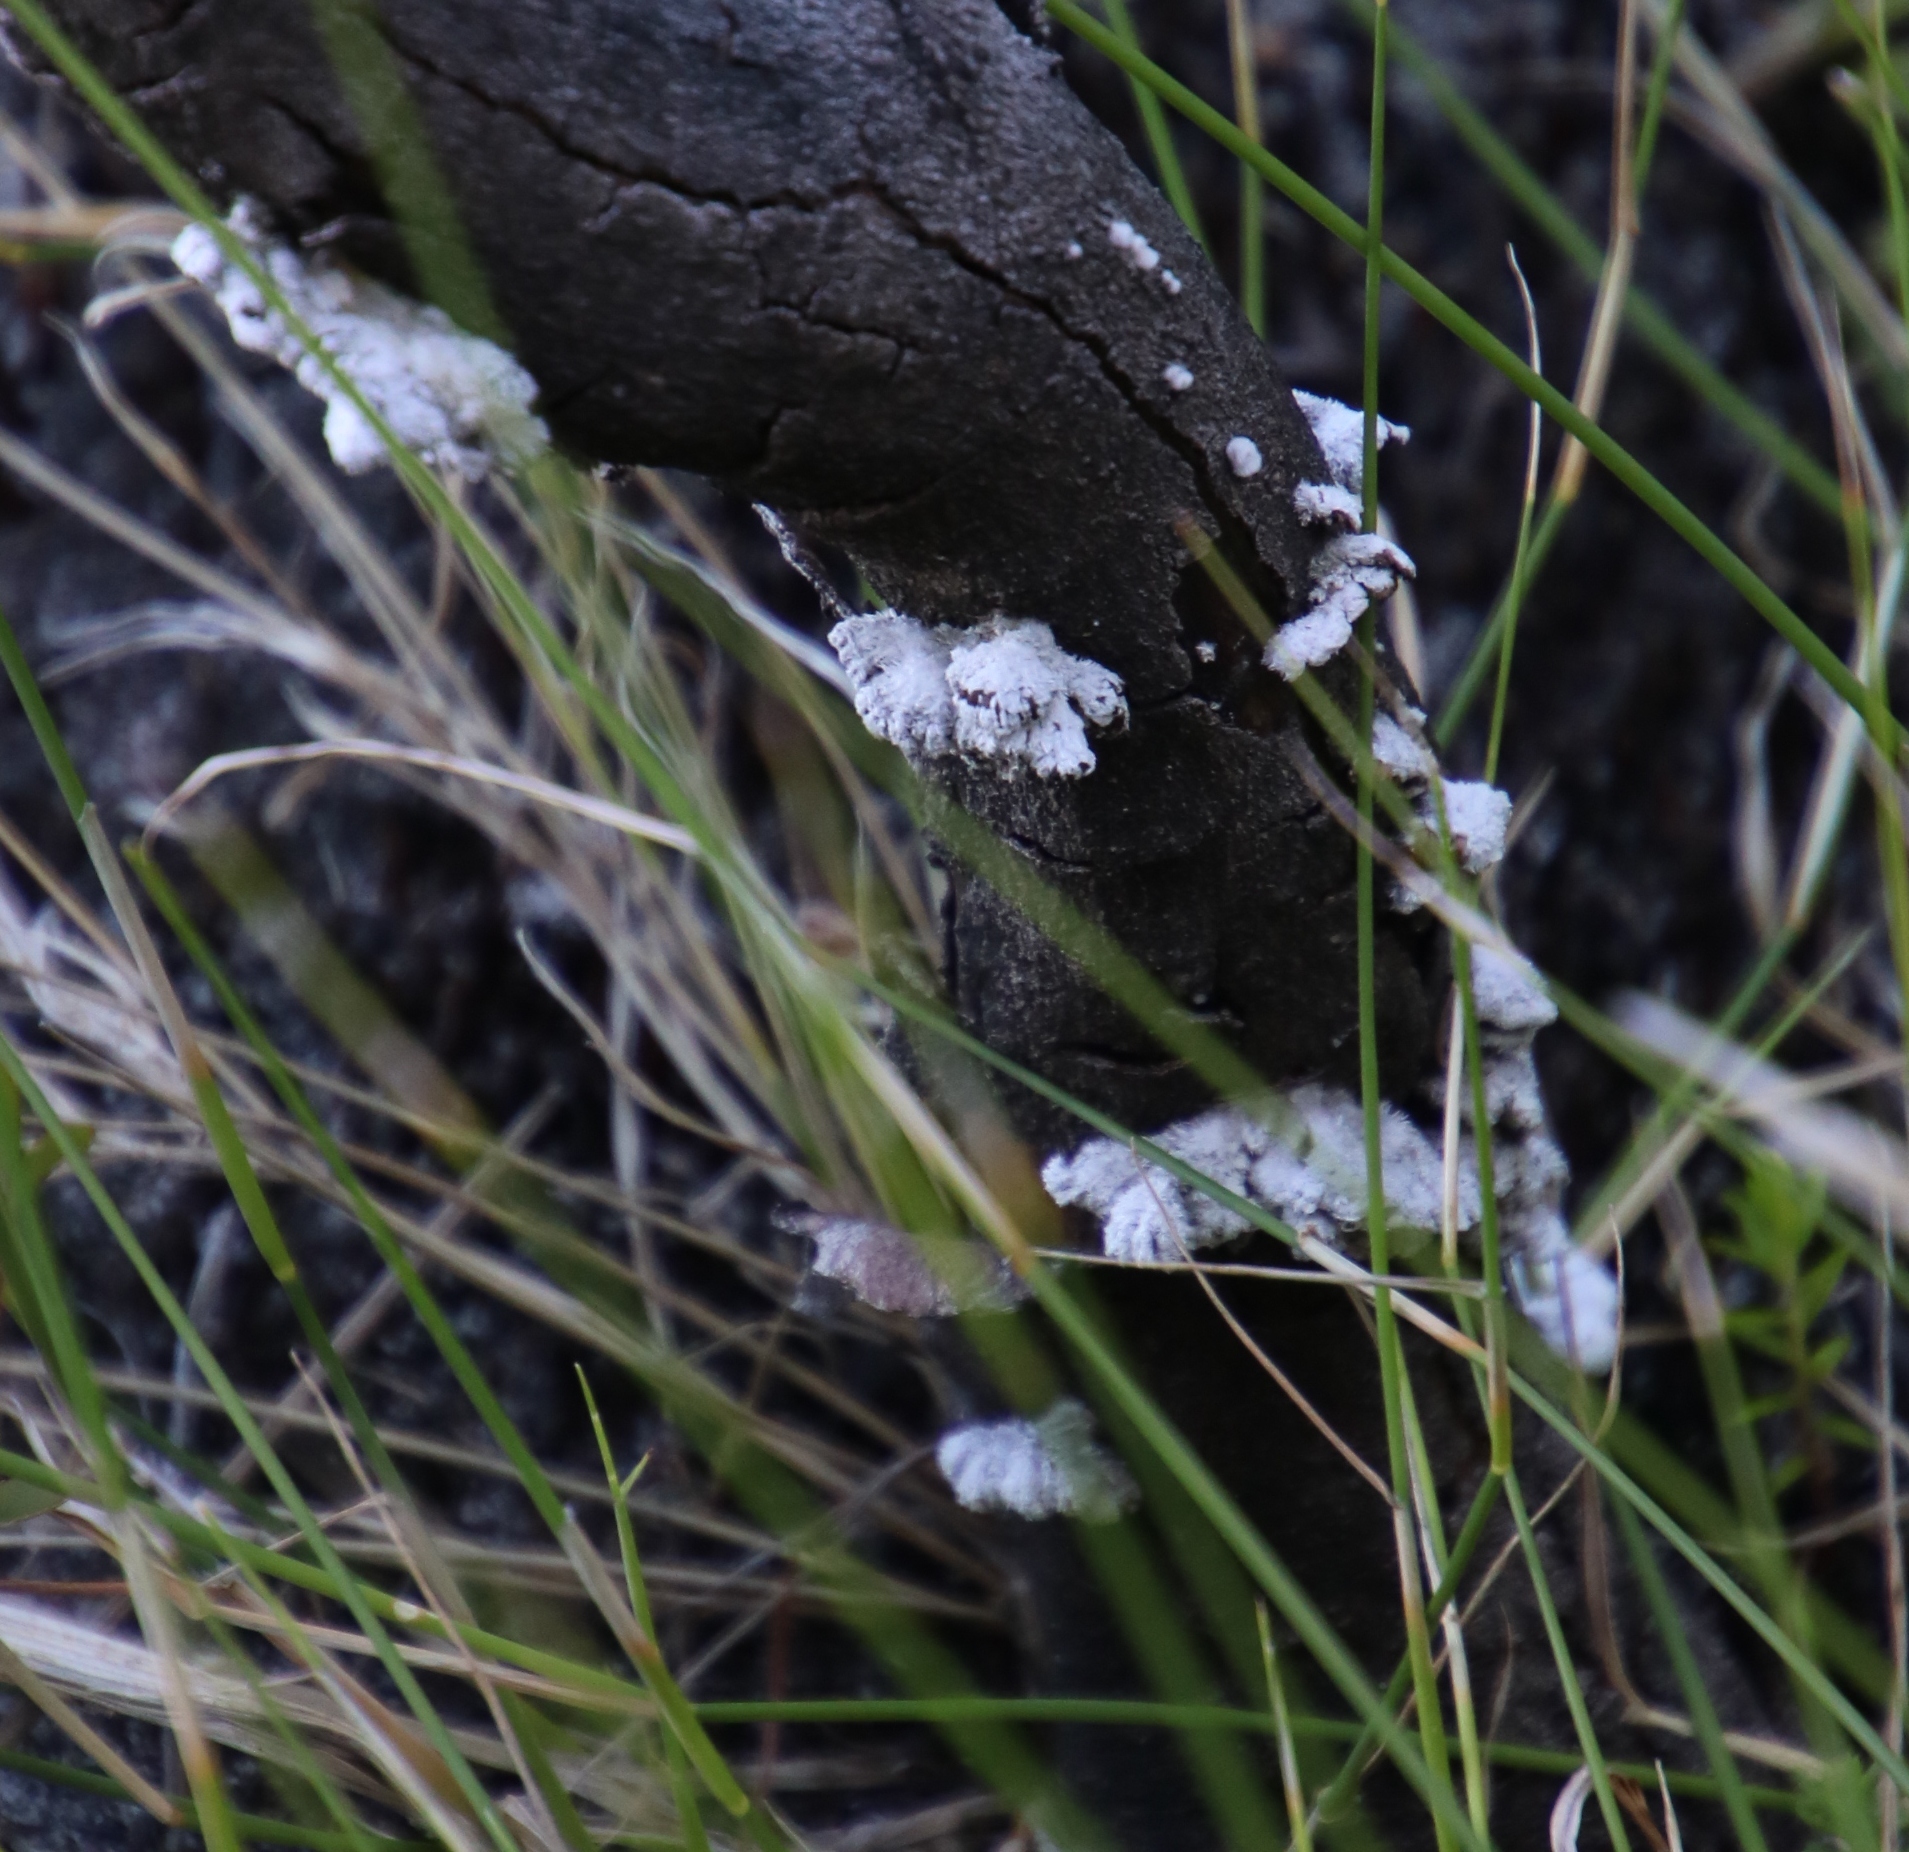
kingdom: Fungi
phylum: Basidiomycota
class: Agaricomycetes
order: Agaricales
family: Schizophyllaceae
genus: Schizophyllum
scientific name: Schizophyllum commune
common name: Common porecrust
